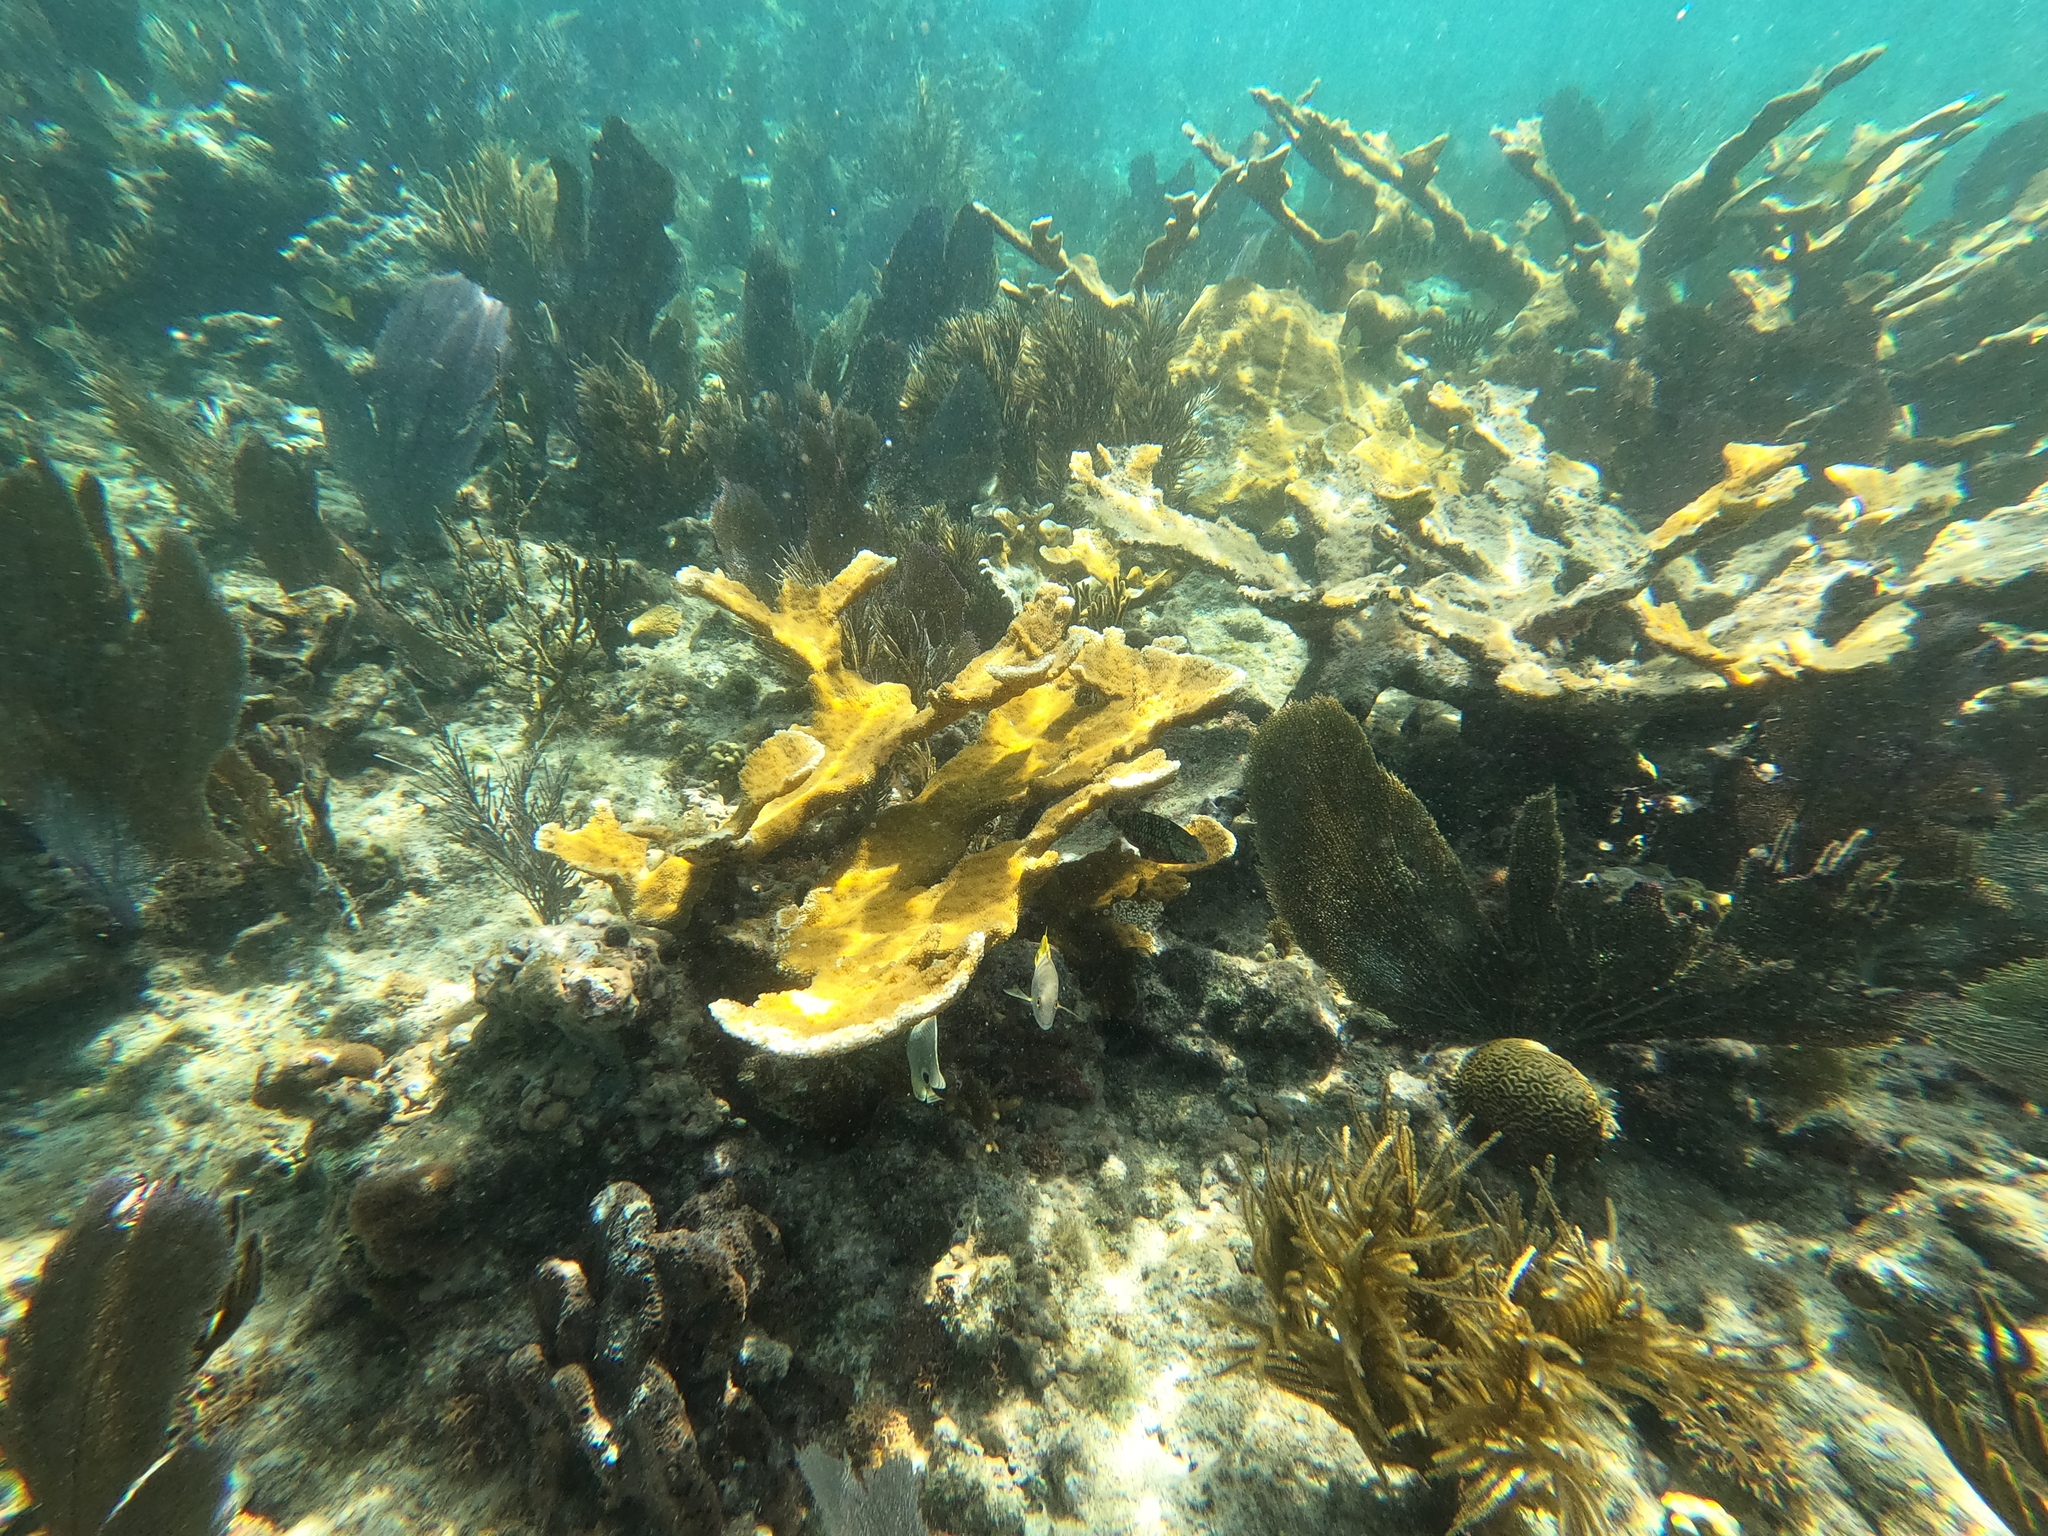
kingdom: Animalia
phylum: Cnidaria
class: Anthozoa
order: Scleractinia
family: Acroporidae
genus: Acropora
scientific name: Acropora palmata
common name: Elkhorn coral
